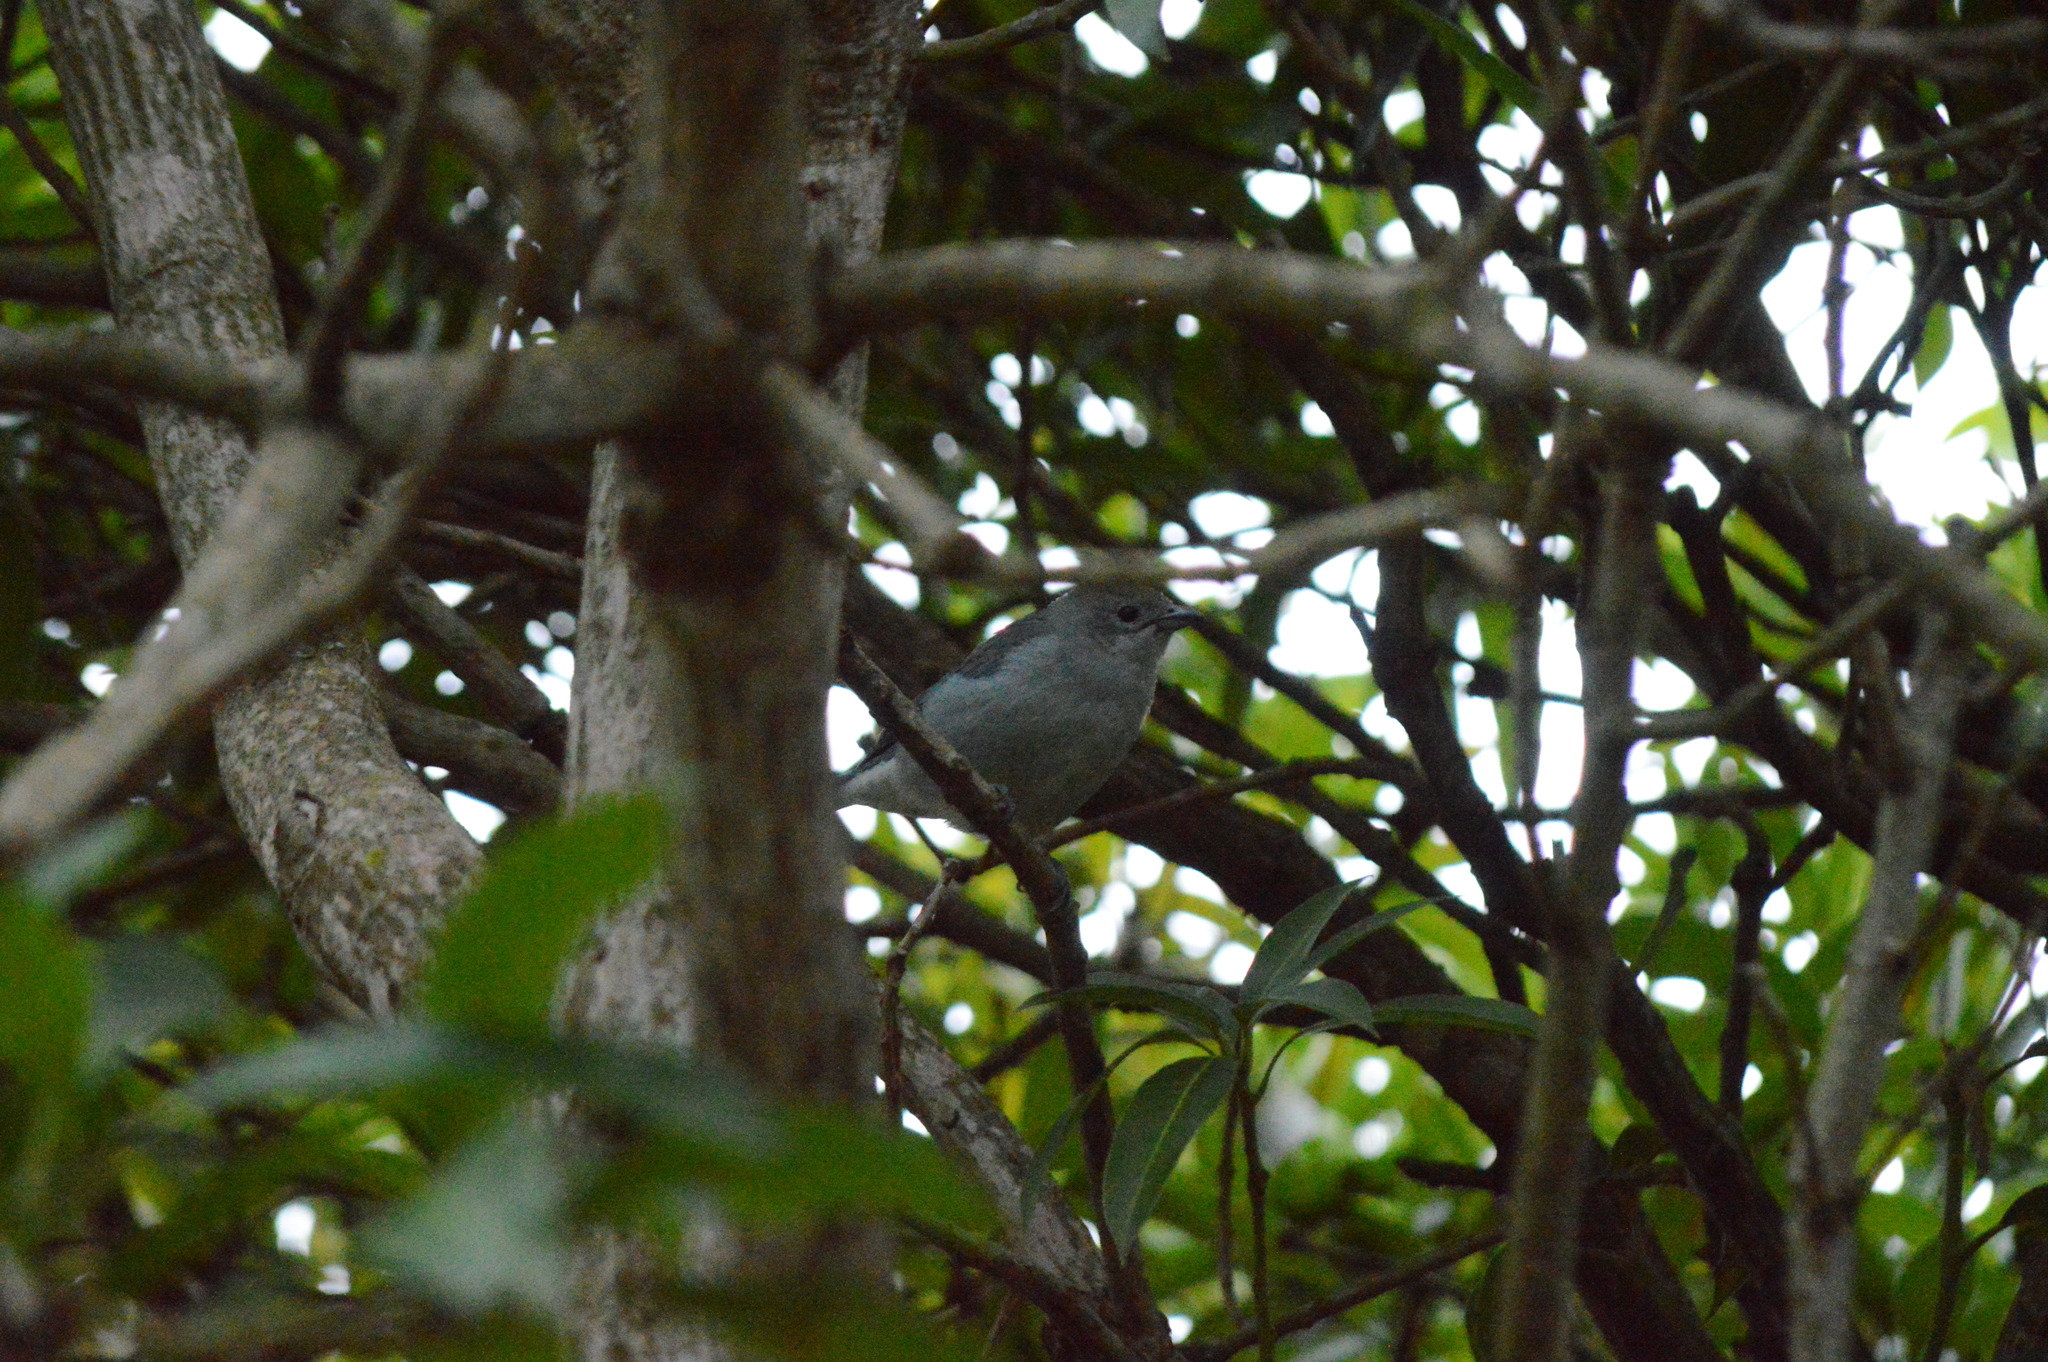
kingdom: Animalia
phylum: Chordata
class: Aves
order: Passeriformes
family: Thraupidae
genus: Conirostrum
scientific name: Conirostrum speciosum
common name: Chestnut-vented conebill
